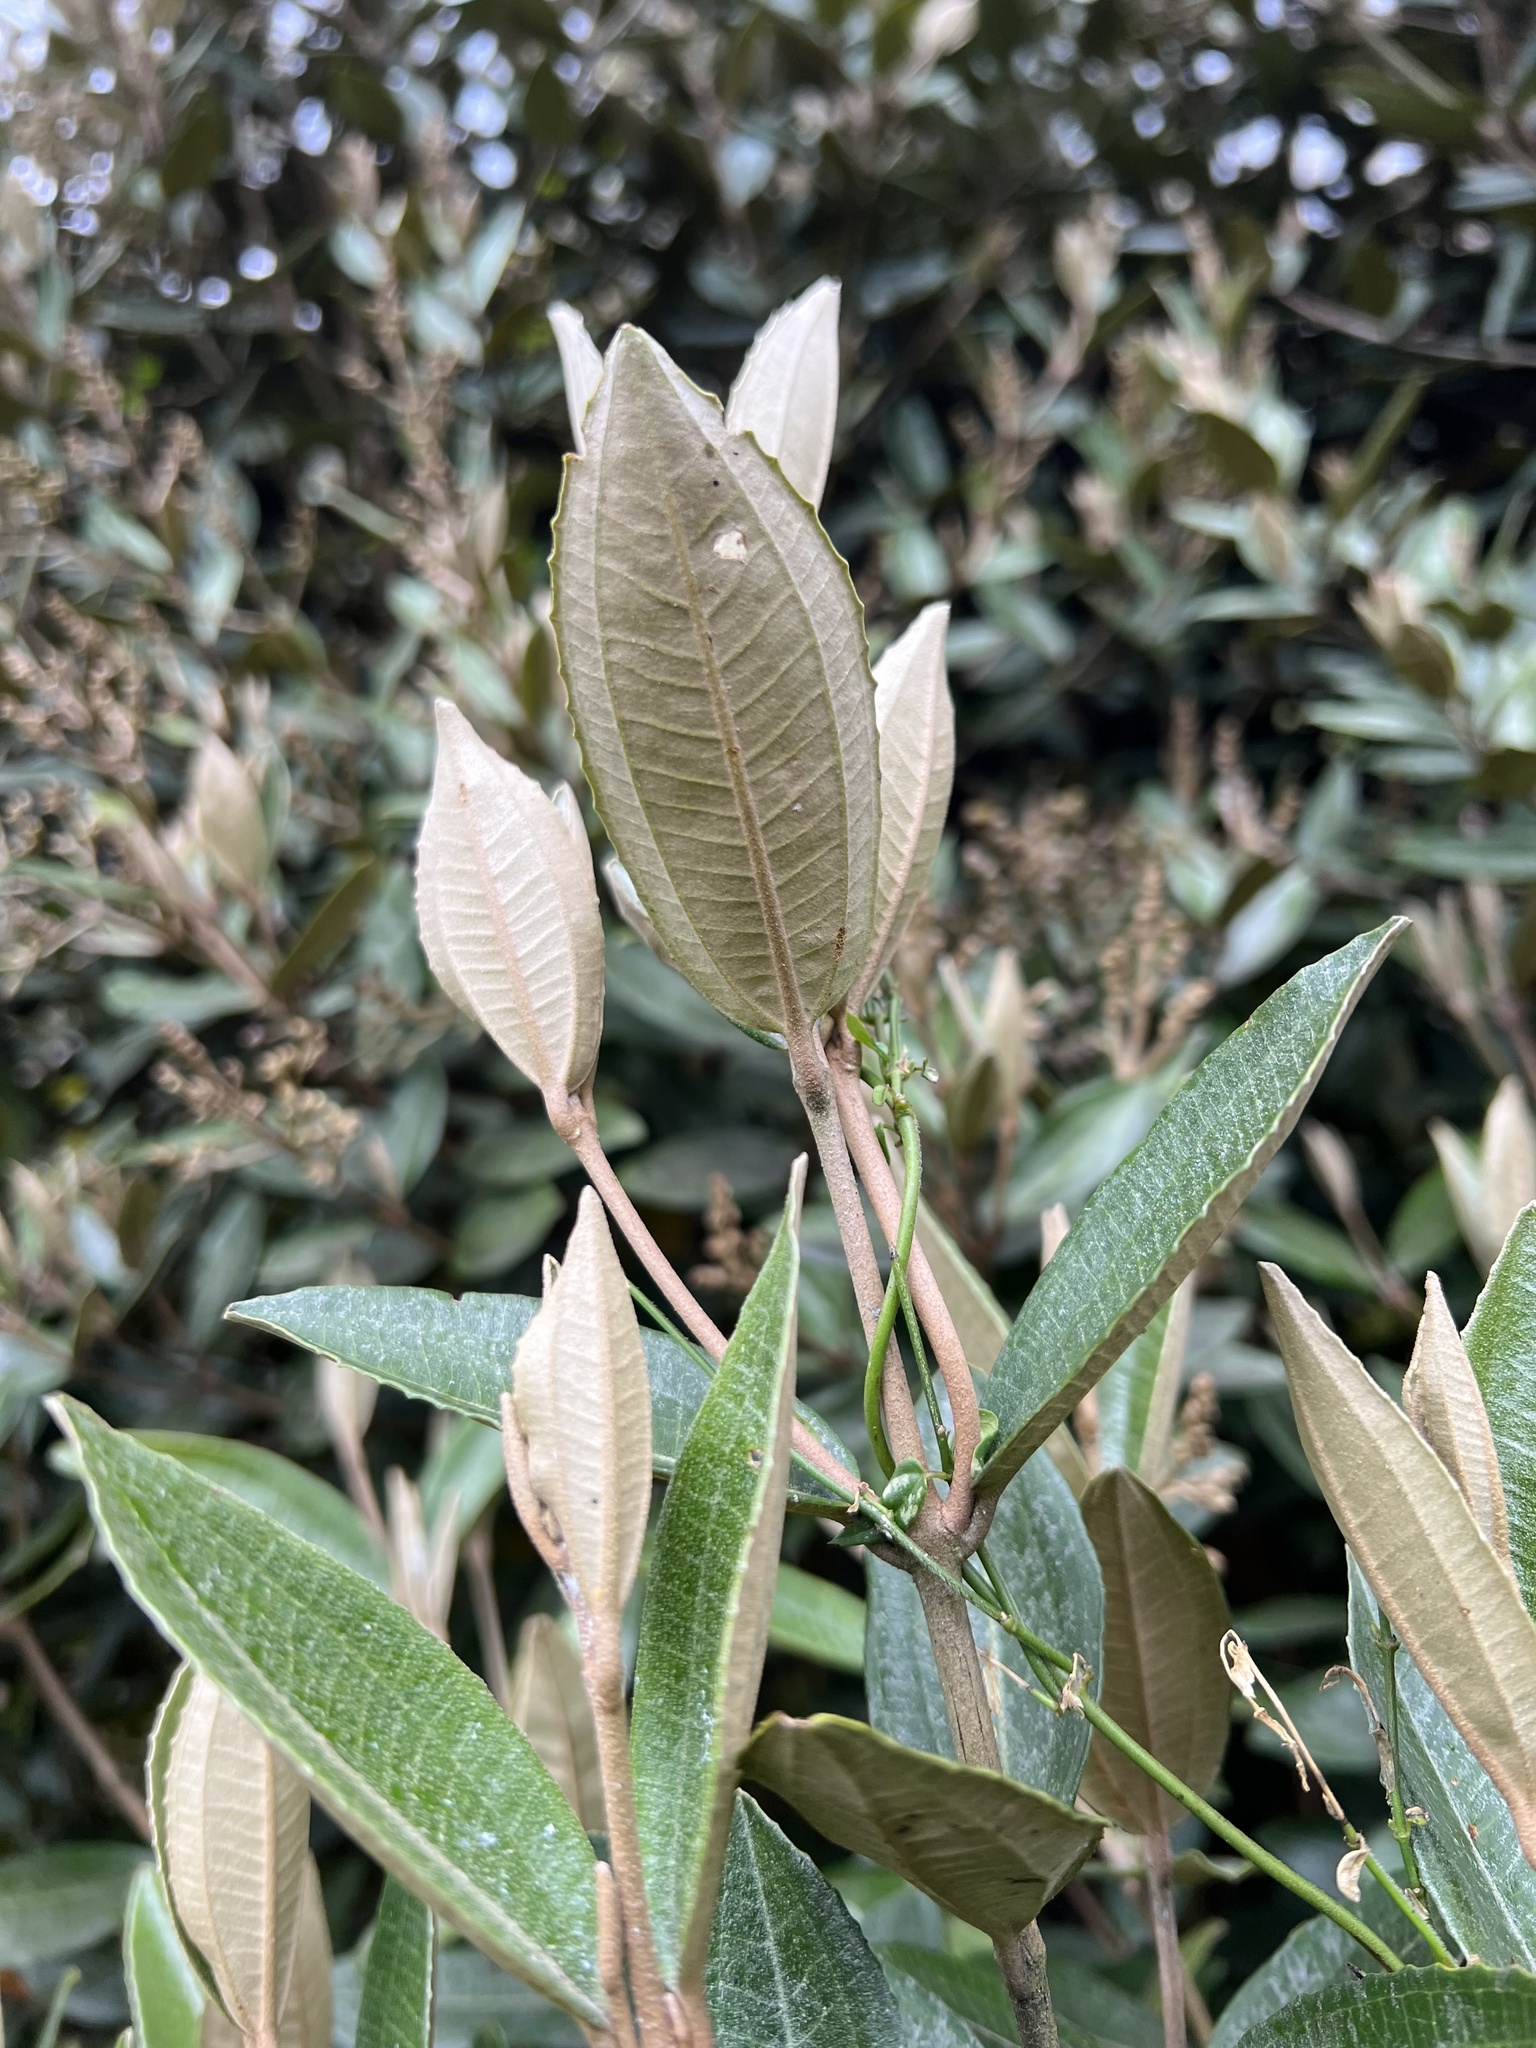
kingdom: Plantae
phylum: Tracheophyta
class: Magnoliopsida
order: Myrtales
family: Melastomataceae
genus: Miconia
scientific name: Miconia squamulosa
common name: Squamulose maya
